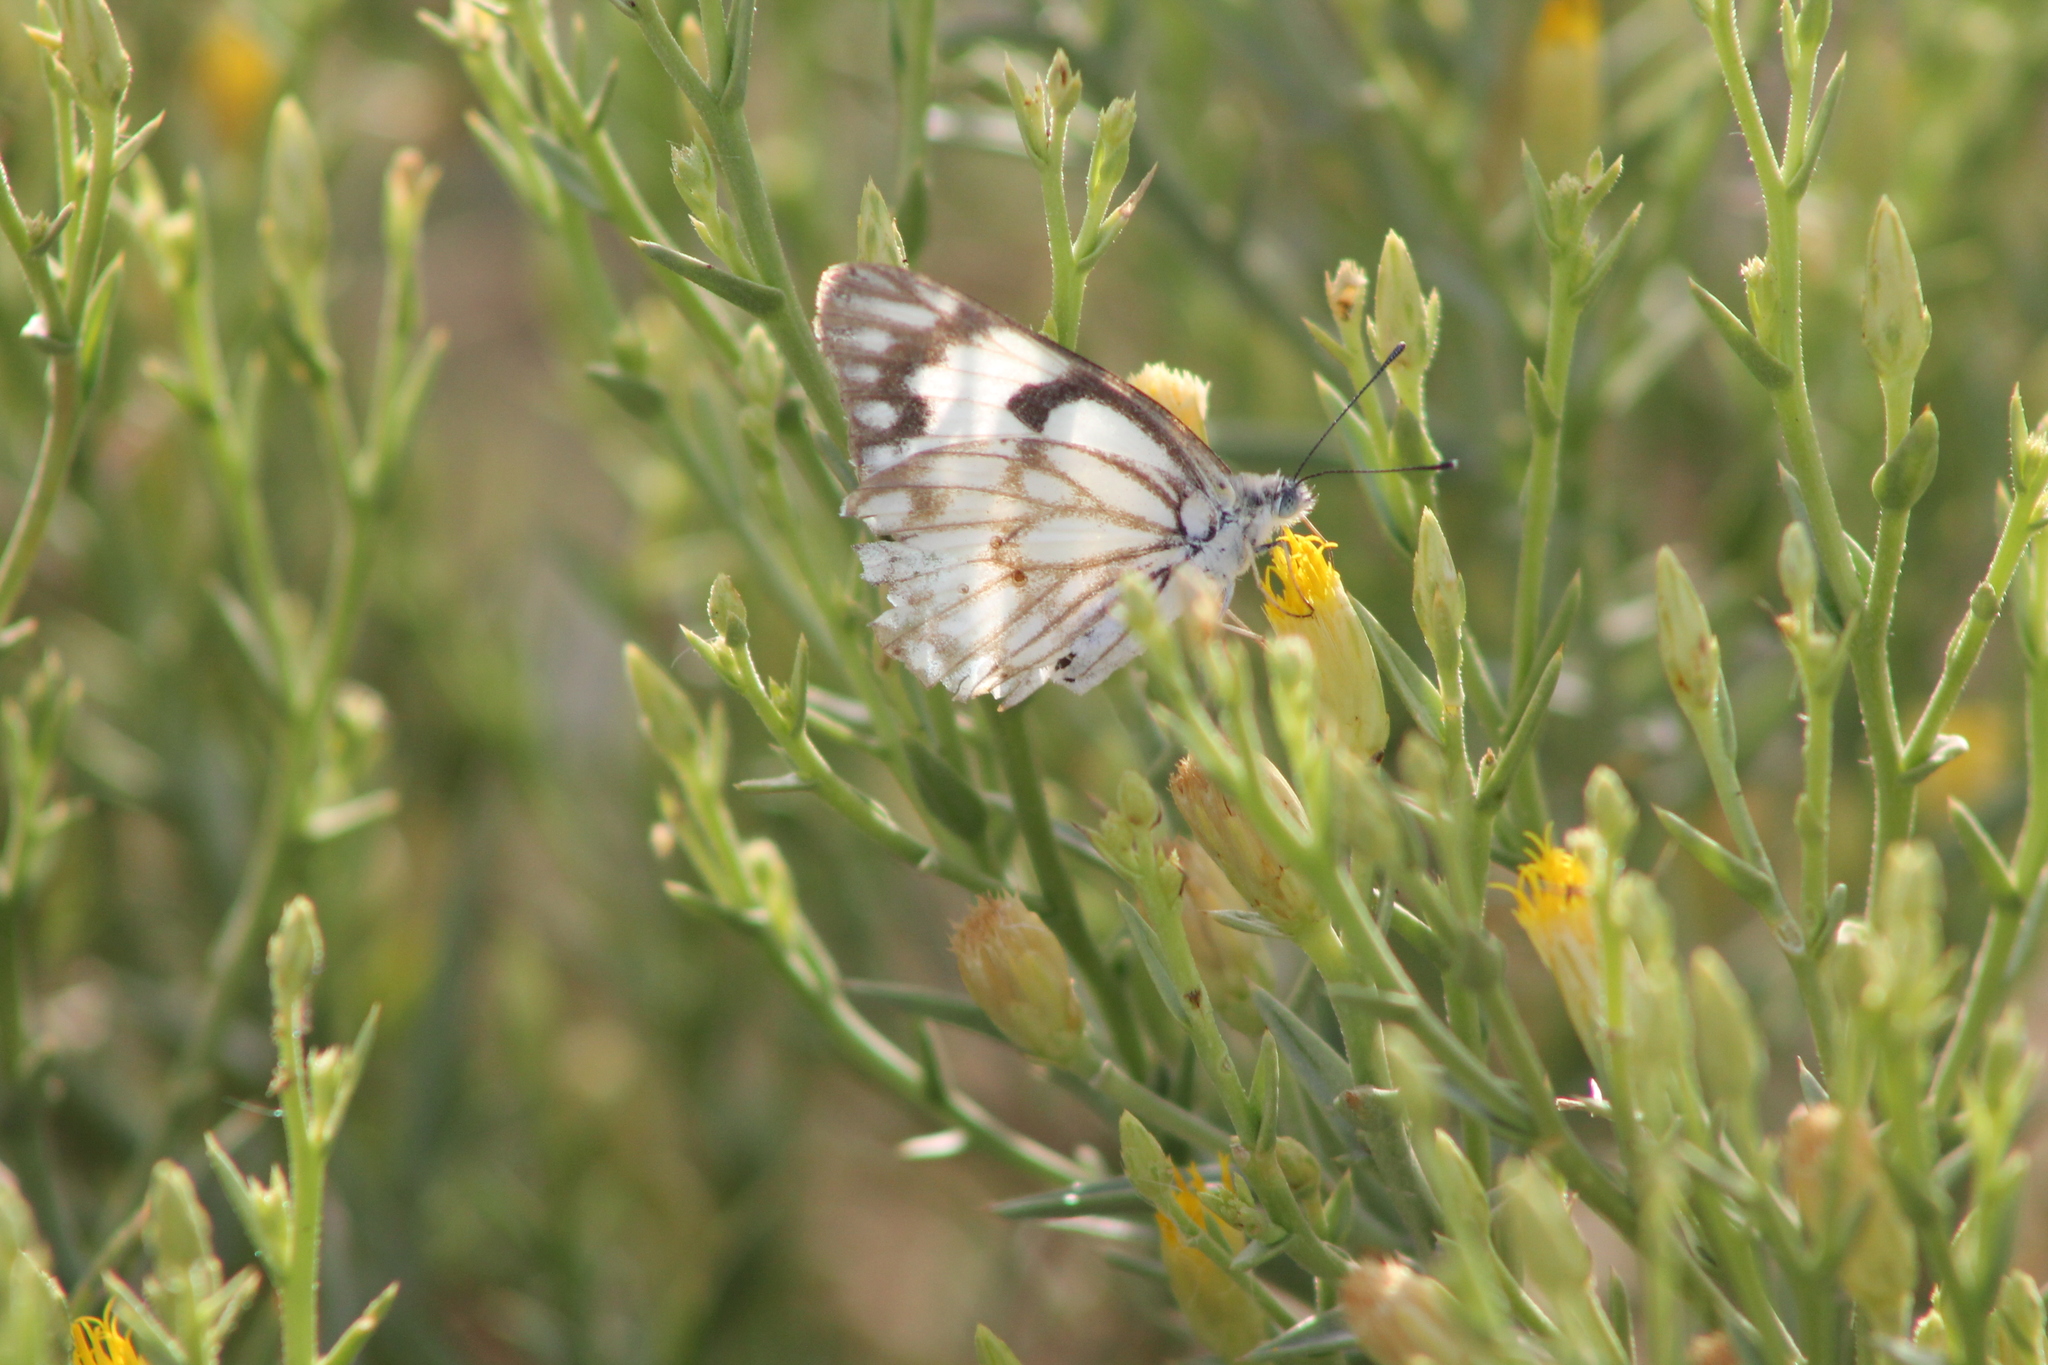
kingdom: Animalia
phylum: Arthropoda
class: Insecta
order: Lepidoptera
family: Pieridae
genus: Belenois
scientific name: Belenois aurota
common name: Brown-veined white
